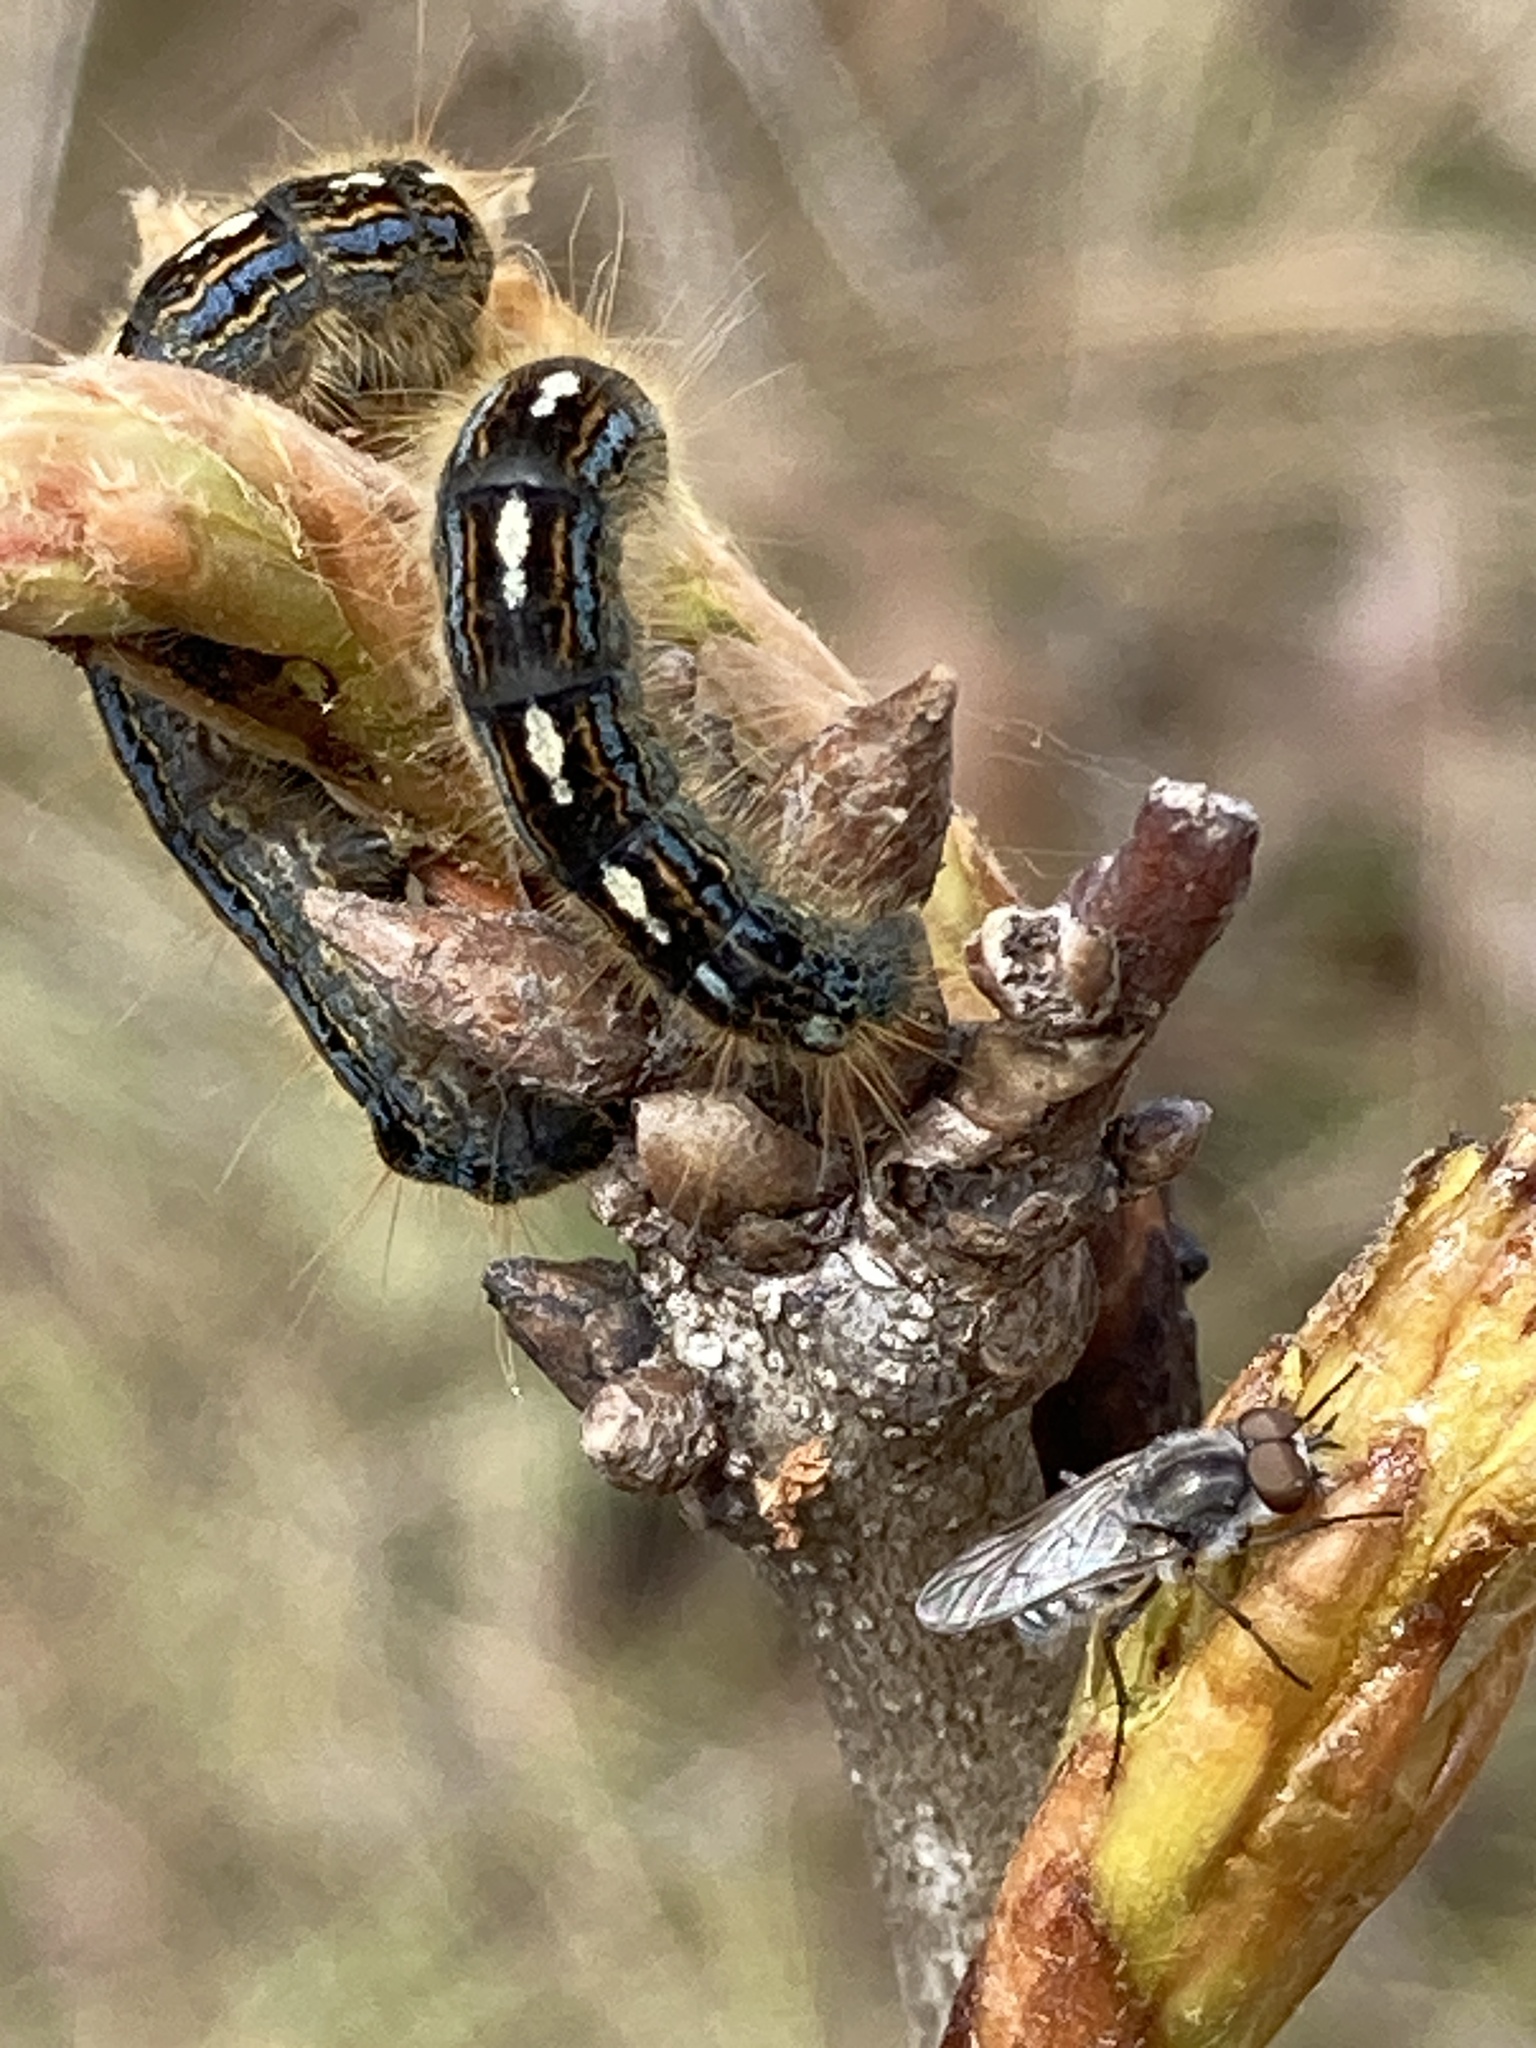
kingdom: Animalia
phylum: Arthropoda
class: Insecta
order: Lepidoptera
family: Lasiocampidae
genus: Malacosoma
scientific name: Malacosoma disstria
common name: Forest tent caterpillar
